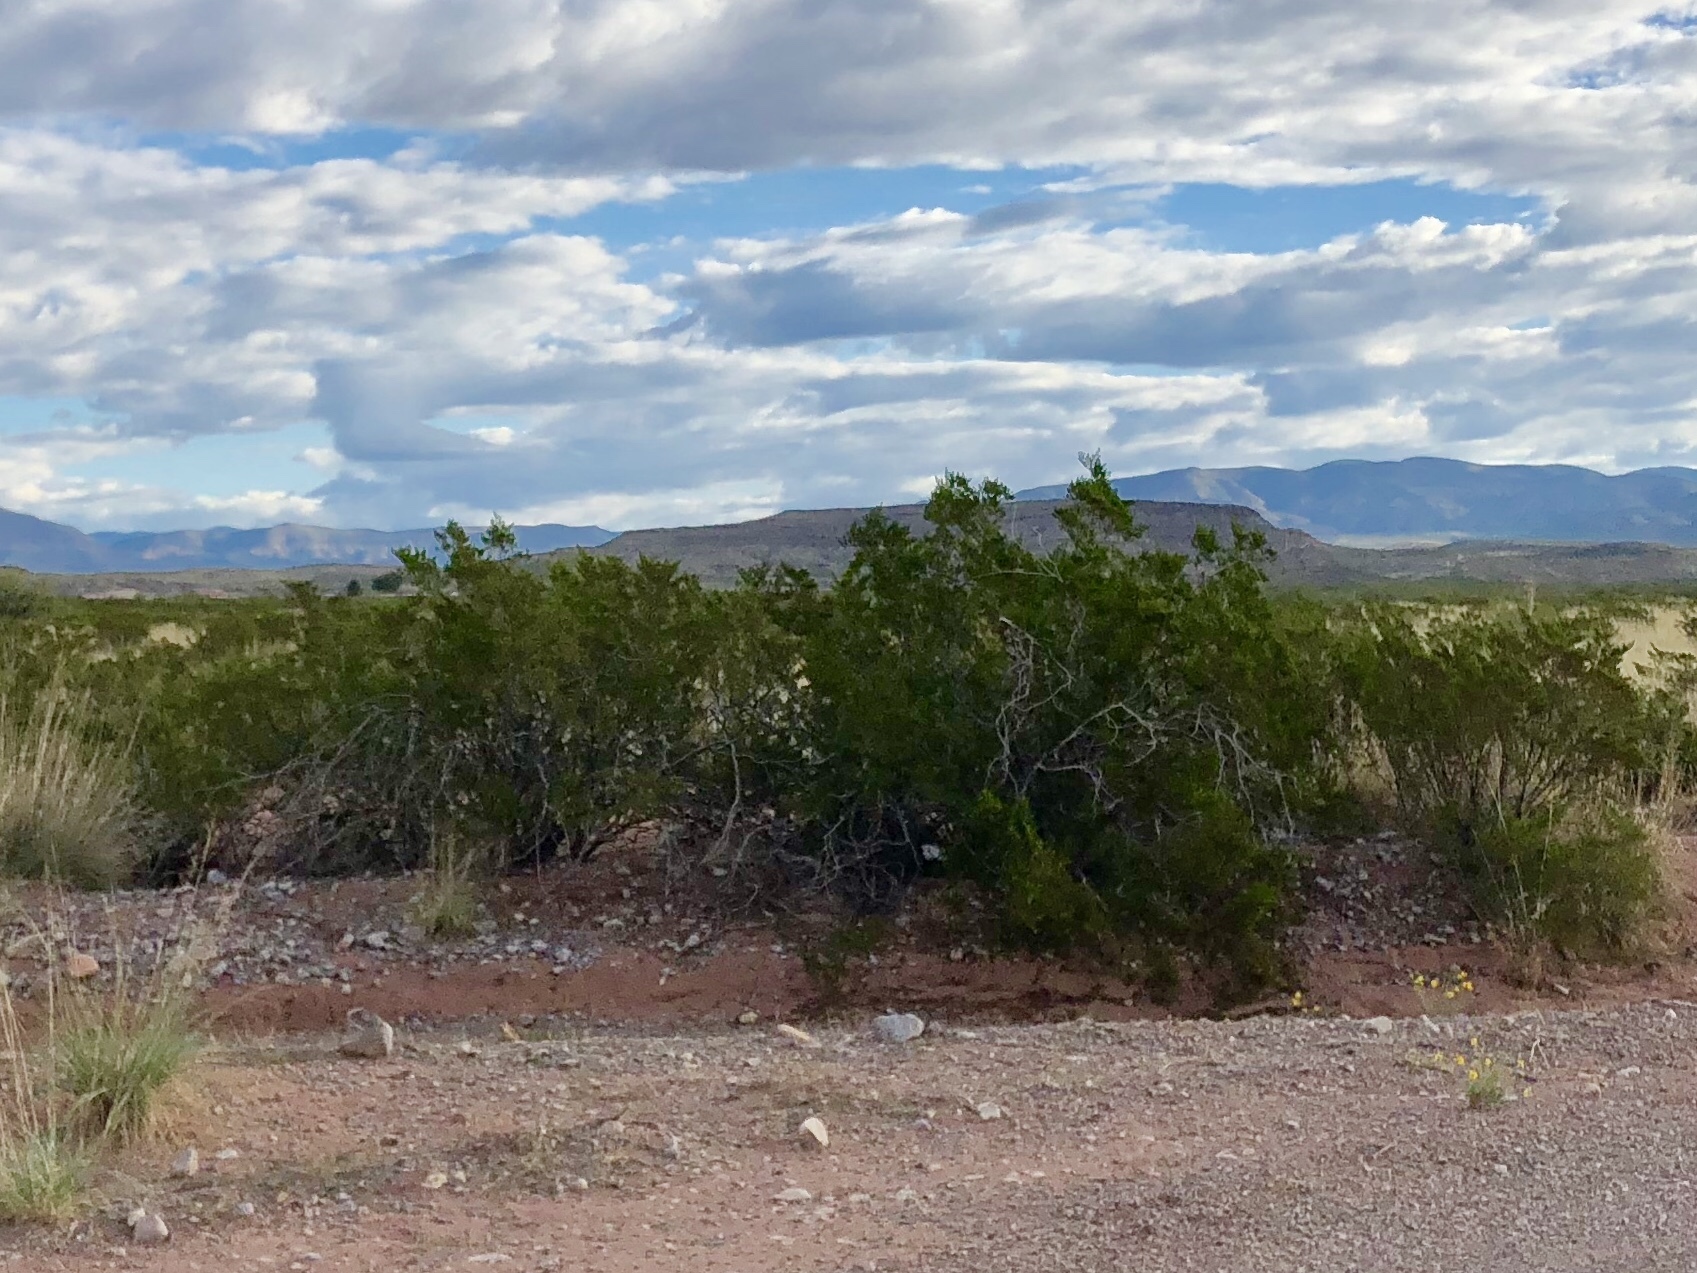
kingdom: Plantae
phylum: Tracheophyta
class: Magnoliopsida
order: Zygophyllales
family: Zygophyllaceae
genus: Larrea
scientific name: Larrea tridentata
